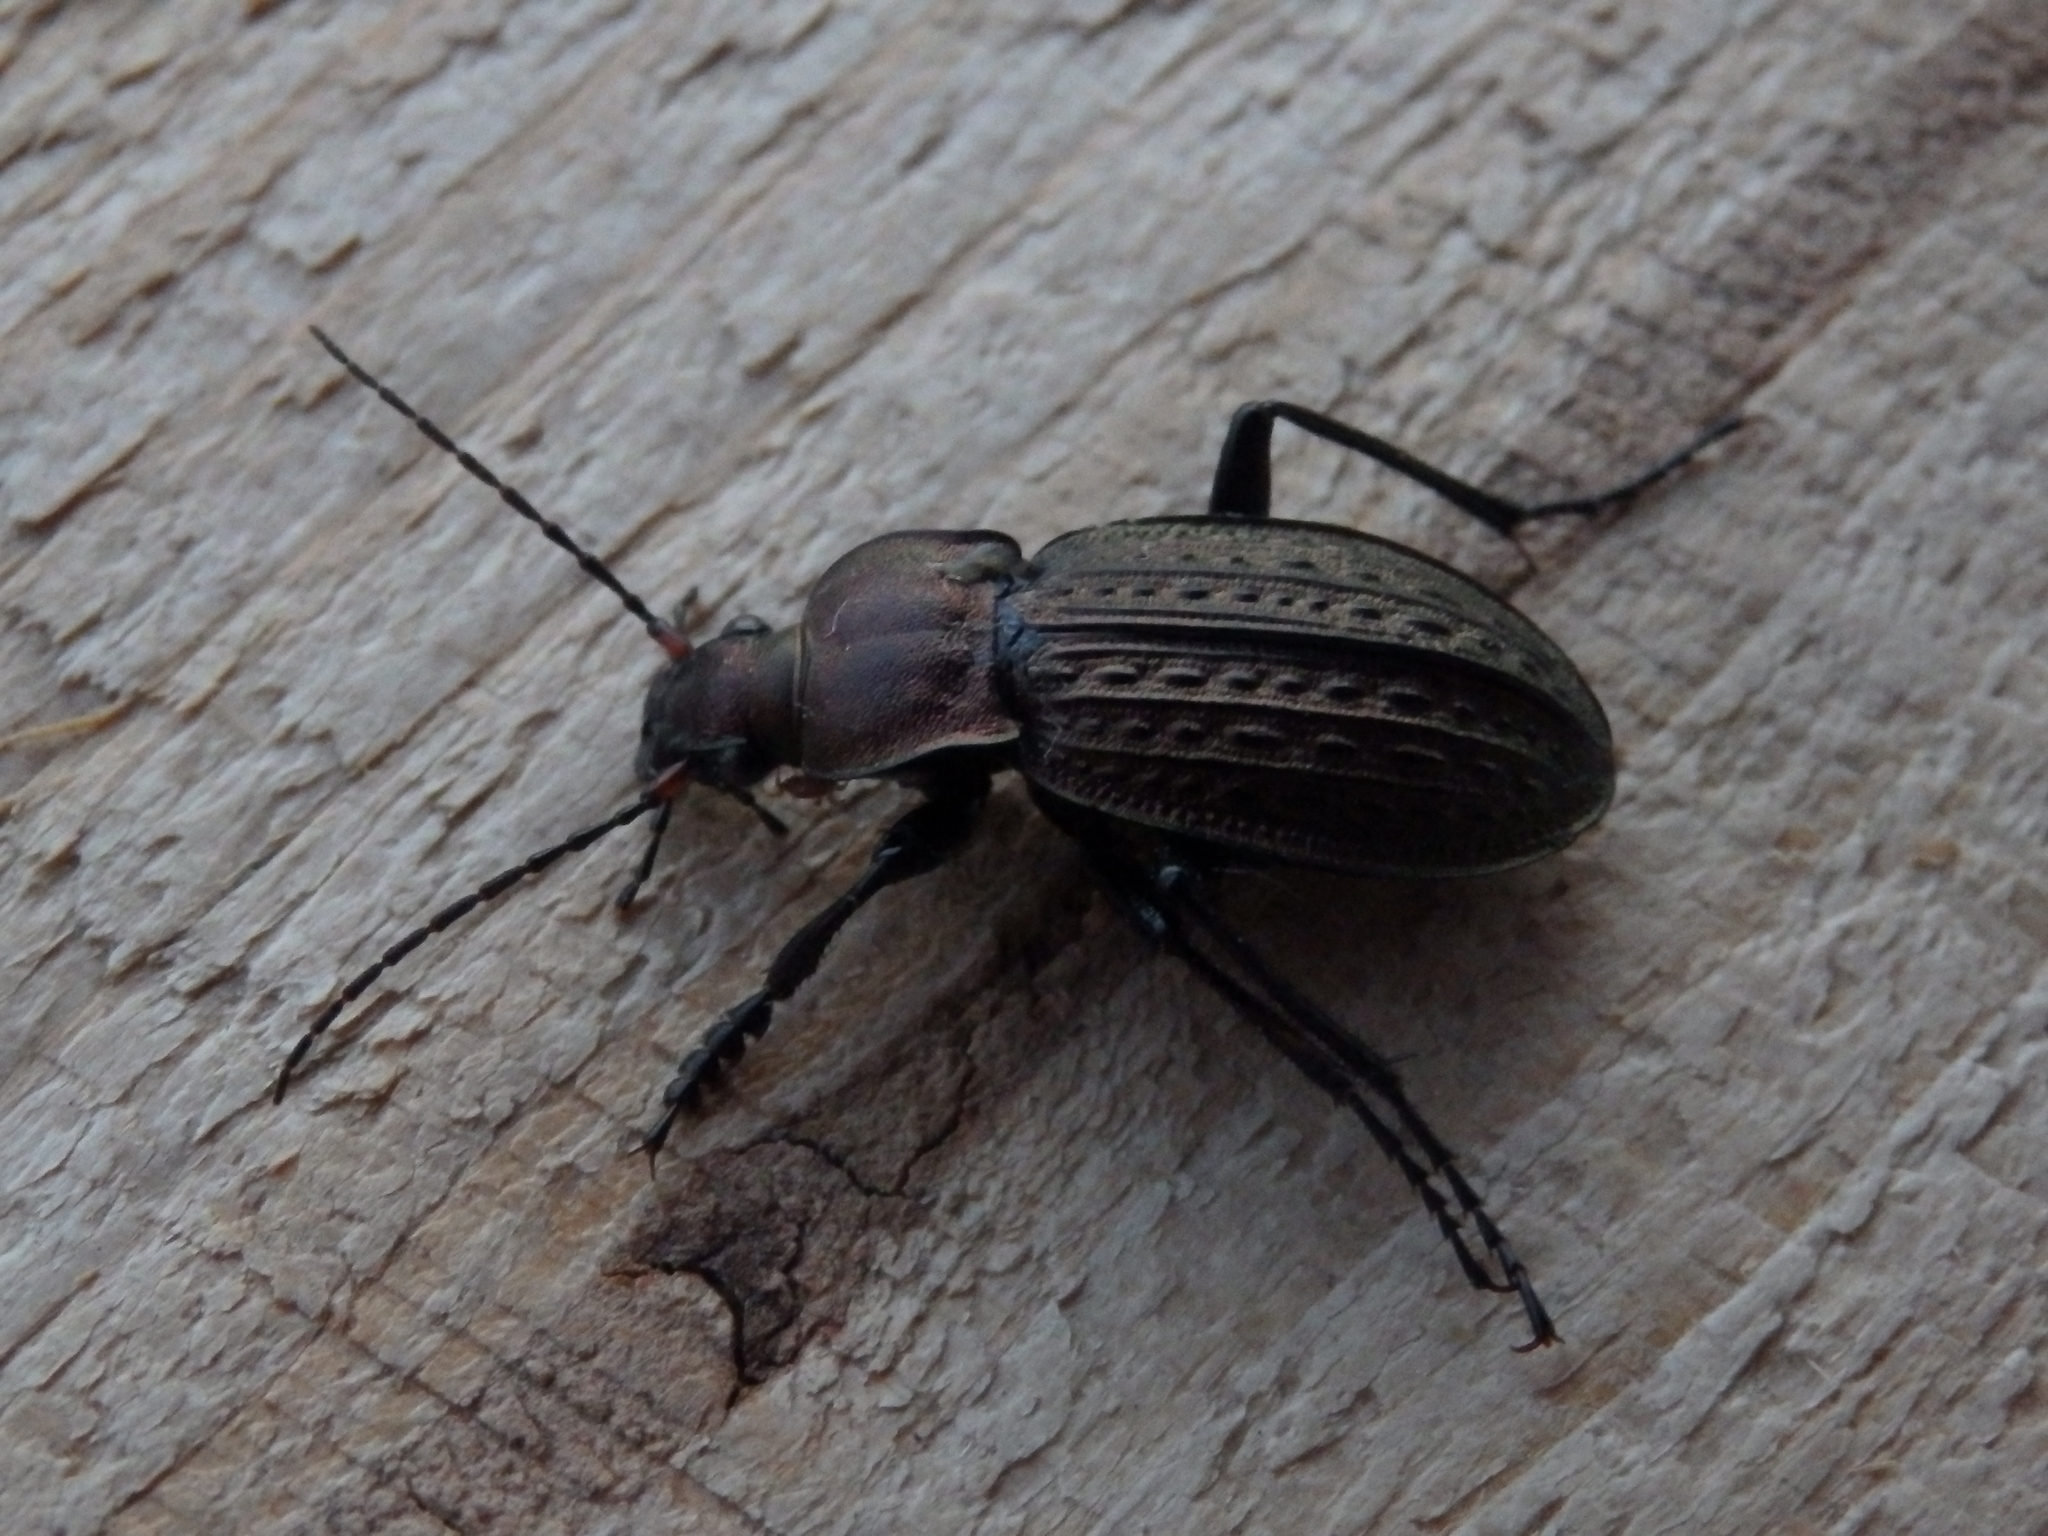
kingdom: Animalia
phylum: Arthropoda
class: Insecta
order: Coleoptera
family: Carabidae
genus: Carabus
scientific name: Carabus cancellatus
